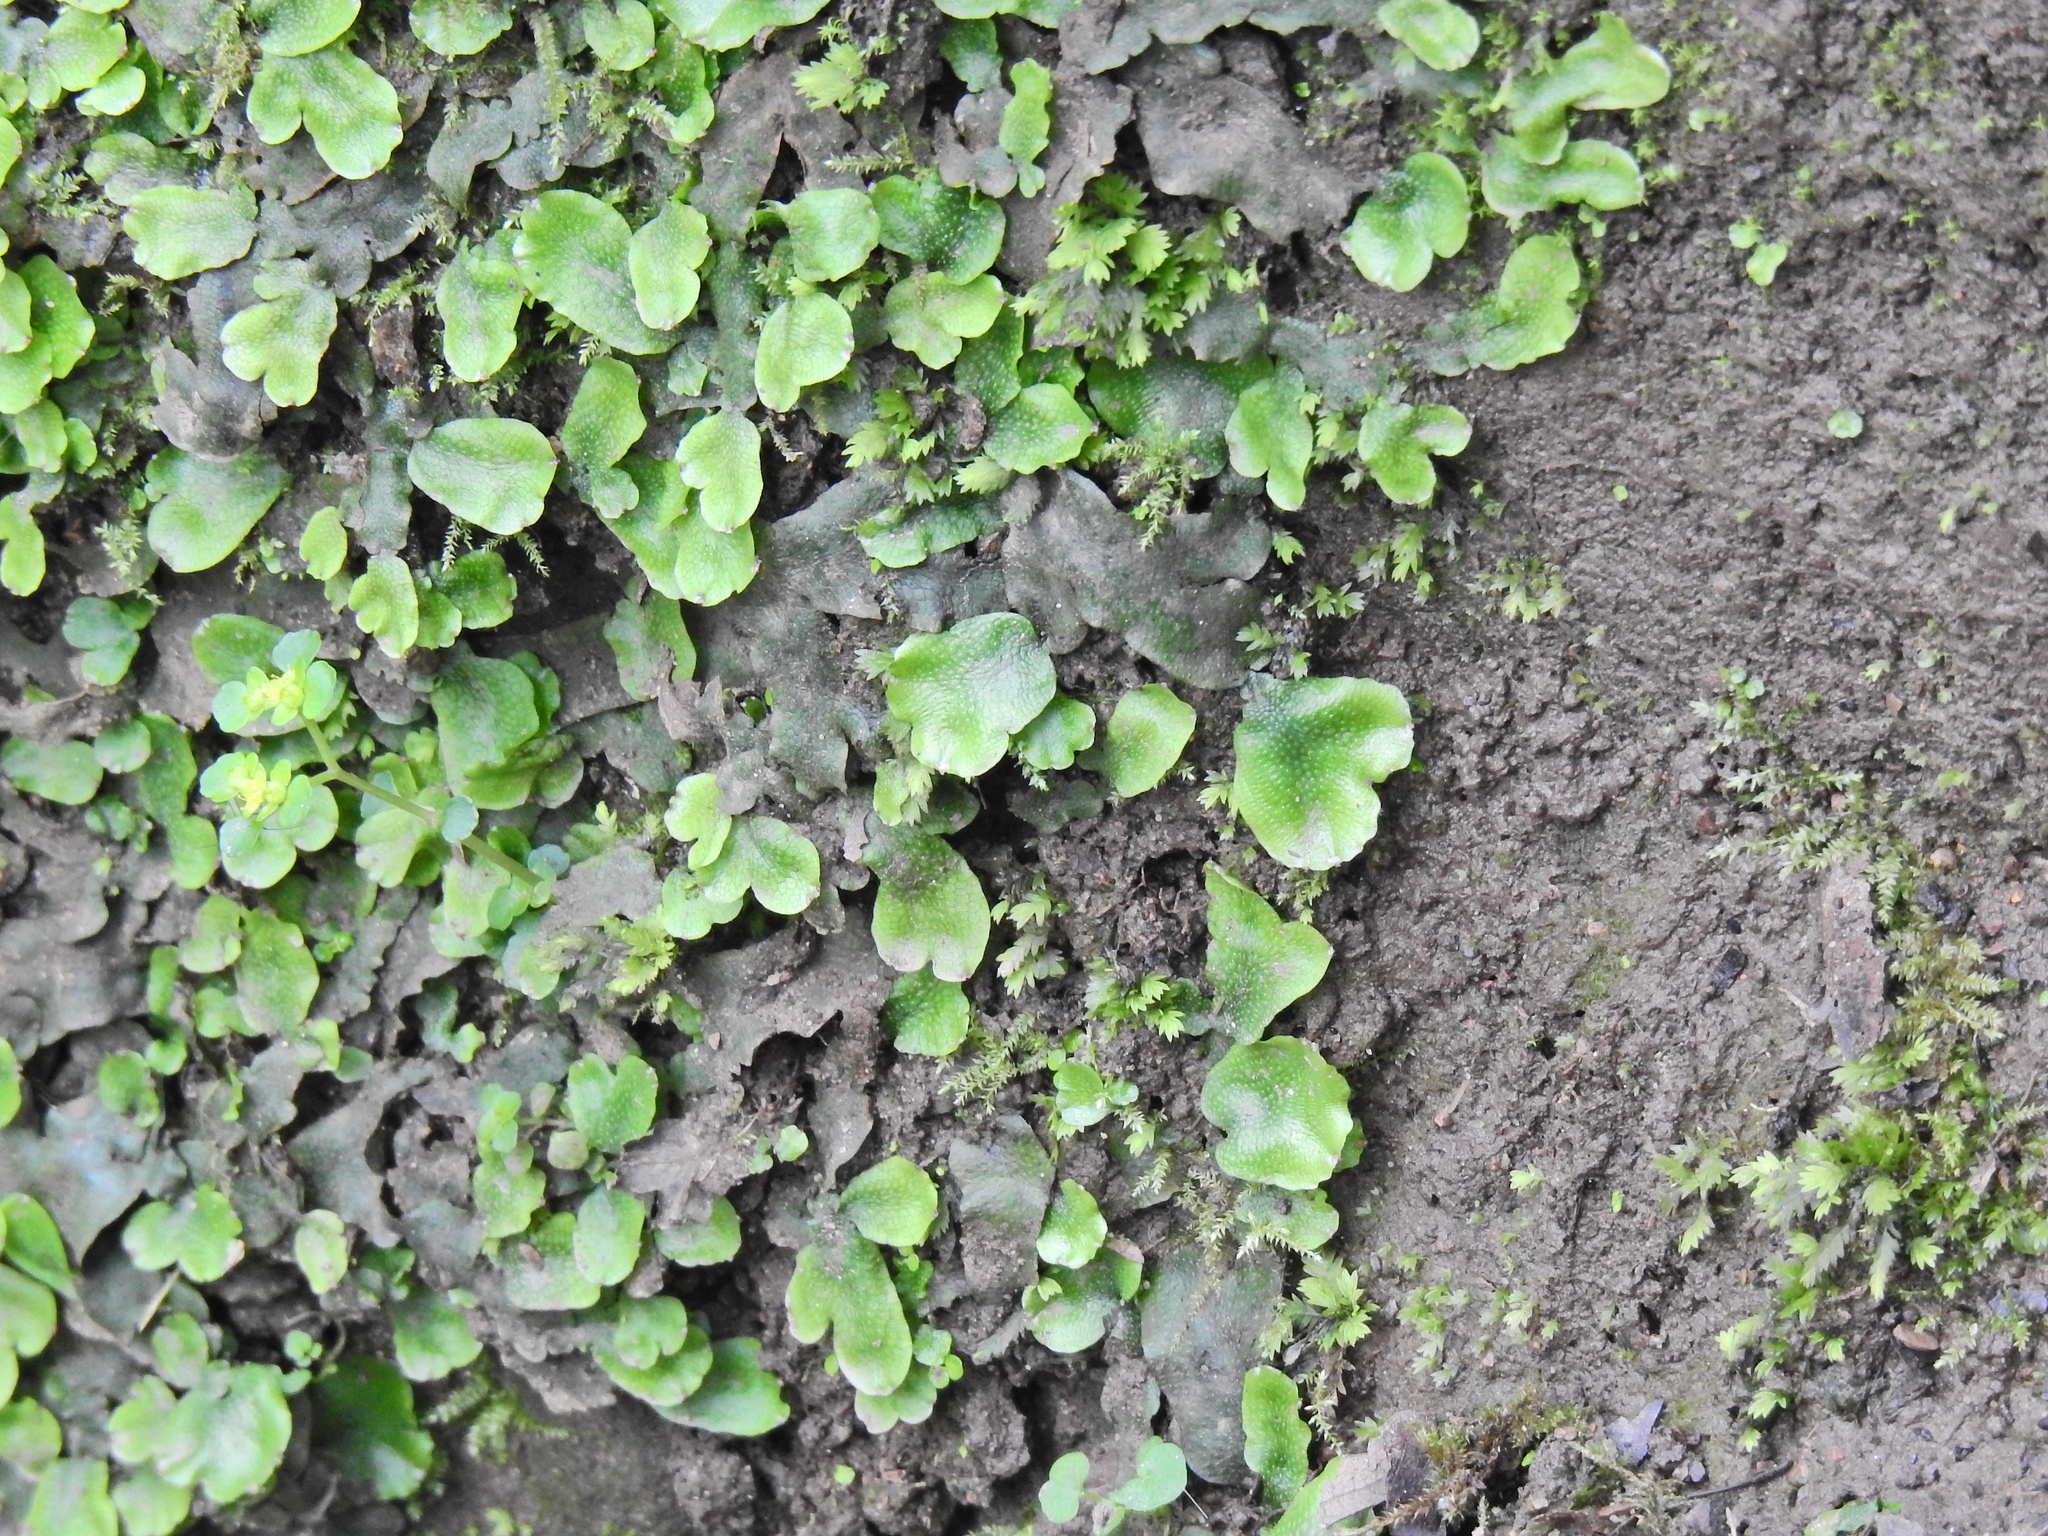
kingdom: Plantae
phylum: Marchantiophyta
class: Marchantiopsida
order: Marchantiales
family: Conocephalaceae
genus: Conocephalum
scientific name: Conocephalum conicum
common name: Great scented liverwort
